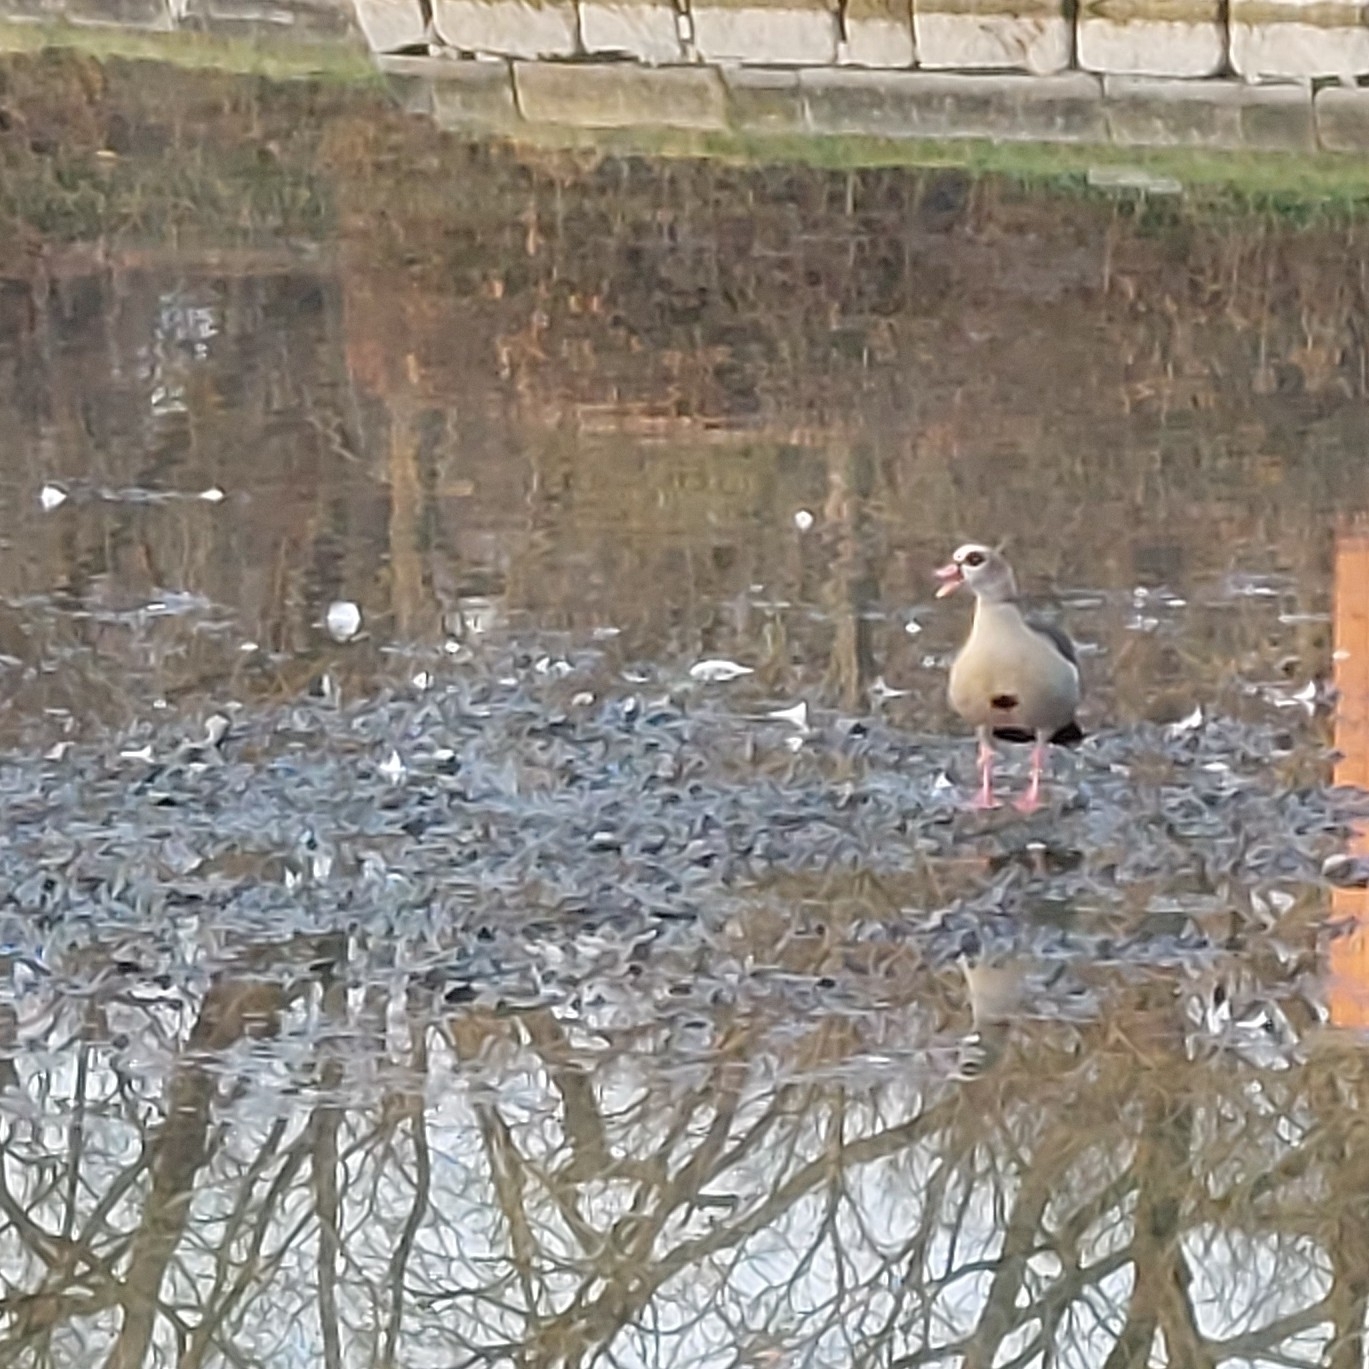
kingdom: Animalia
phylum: Chordata
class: Aves
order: Anseriformes
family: Anatidae
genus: Alopochen
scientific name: Alopochen aegyptiaca
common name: Egyptian goose
